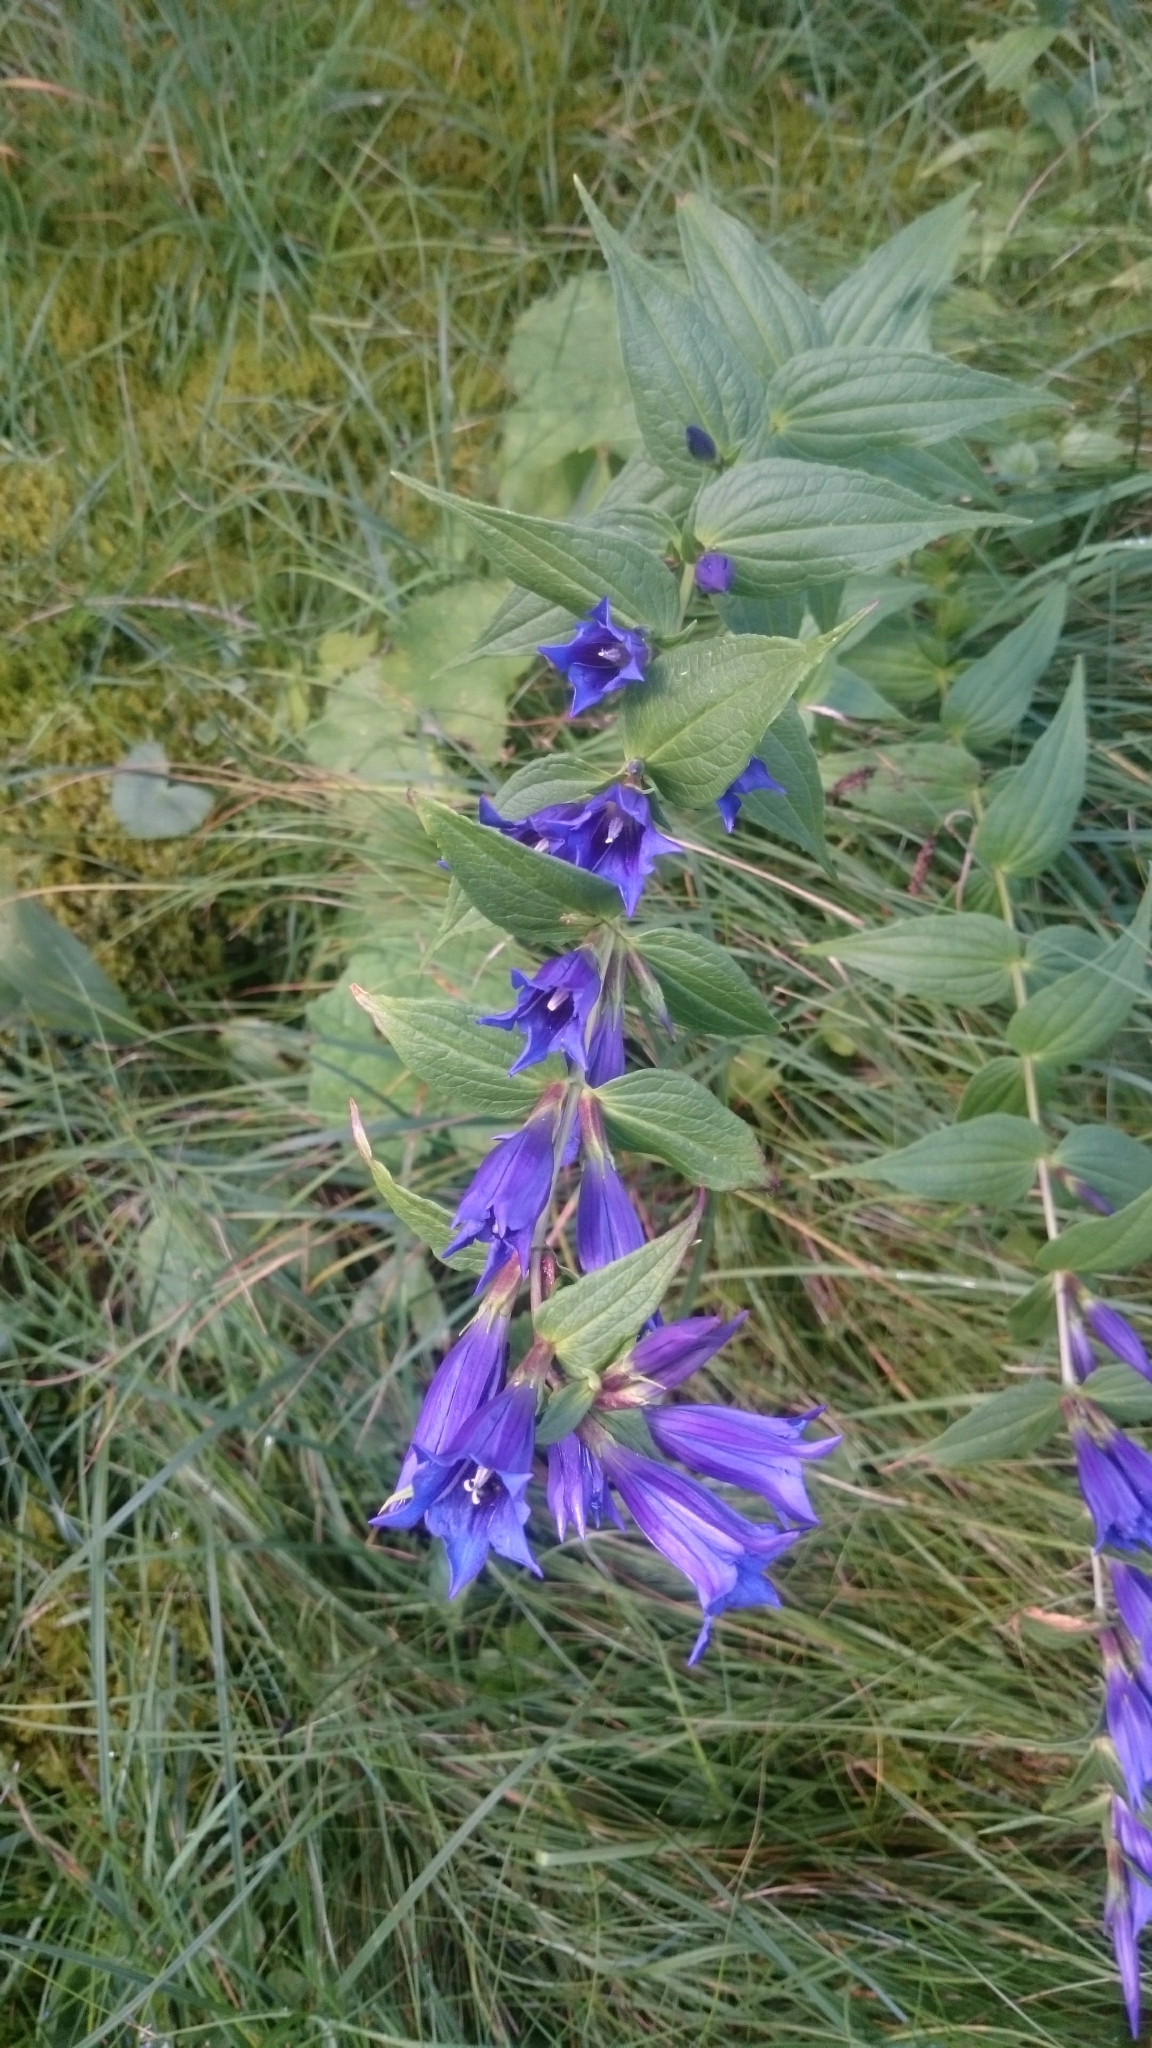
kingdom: Plantae
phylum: Tracheophyta
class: Magnoliopsida
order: Gentianales
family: Gentianaceae
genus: Gentiana
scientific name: Gentiana asclepiadea
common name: Willow gentian
